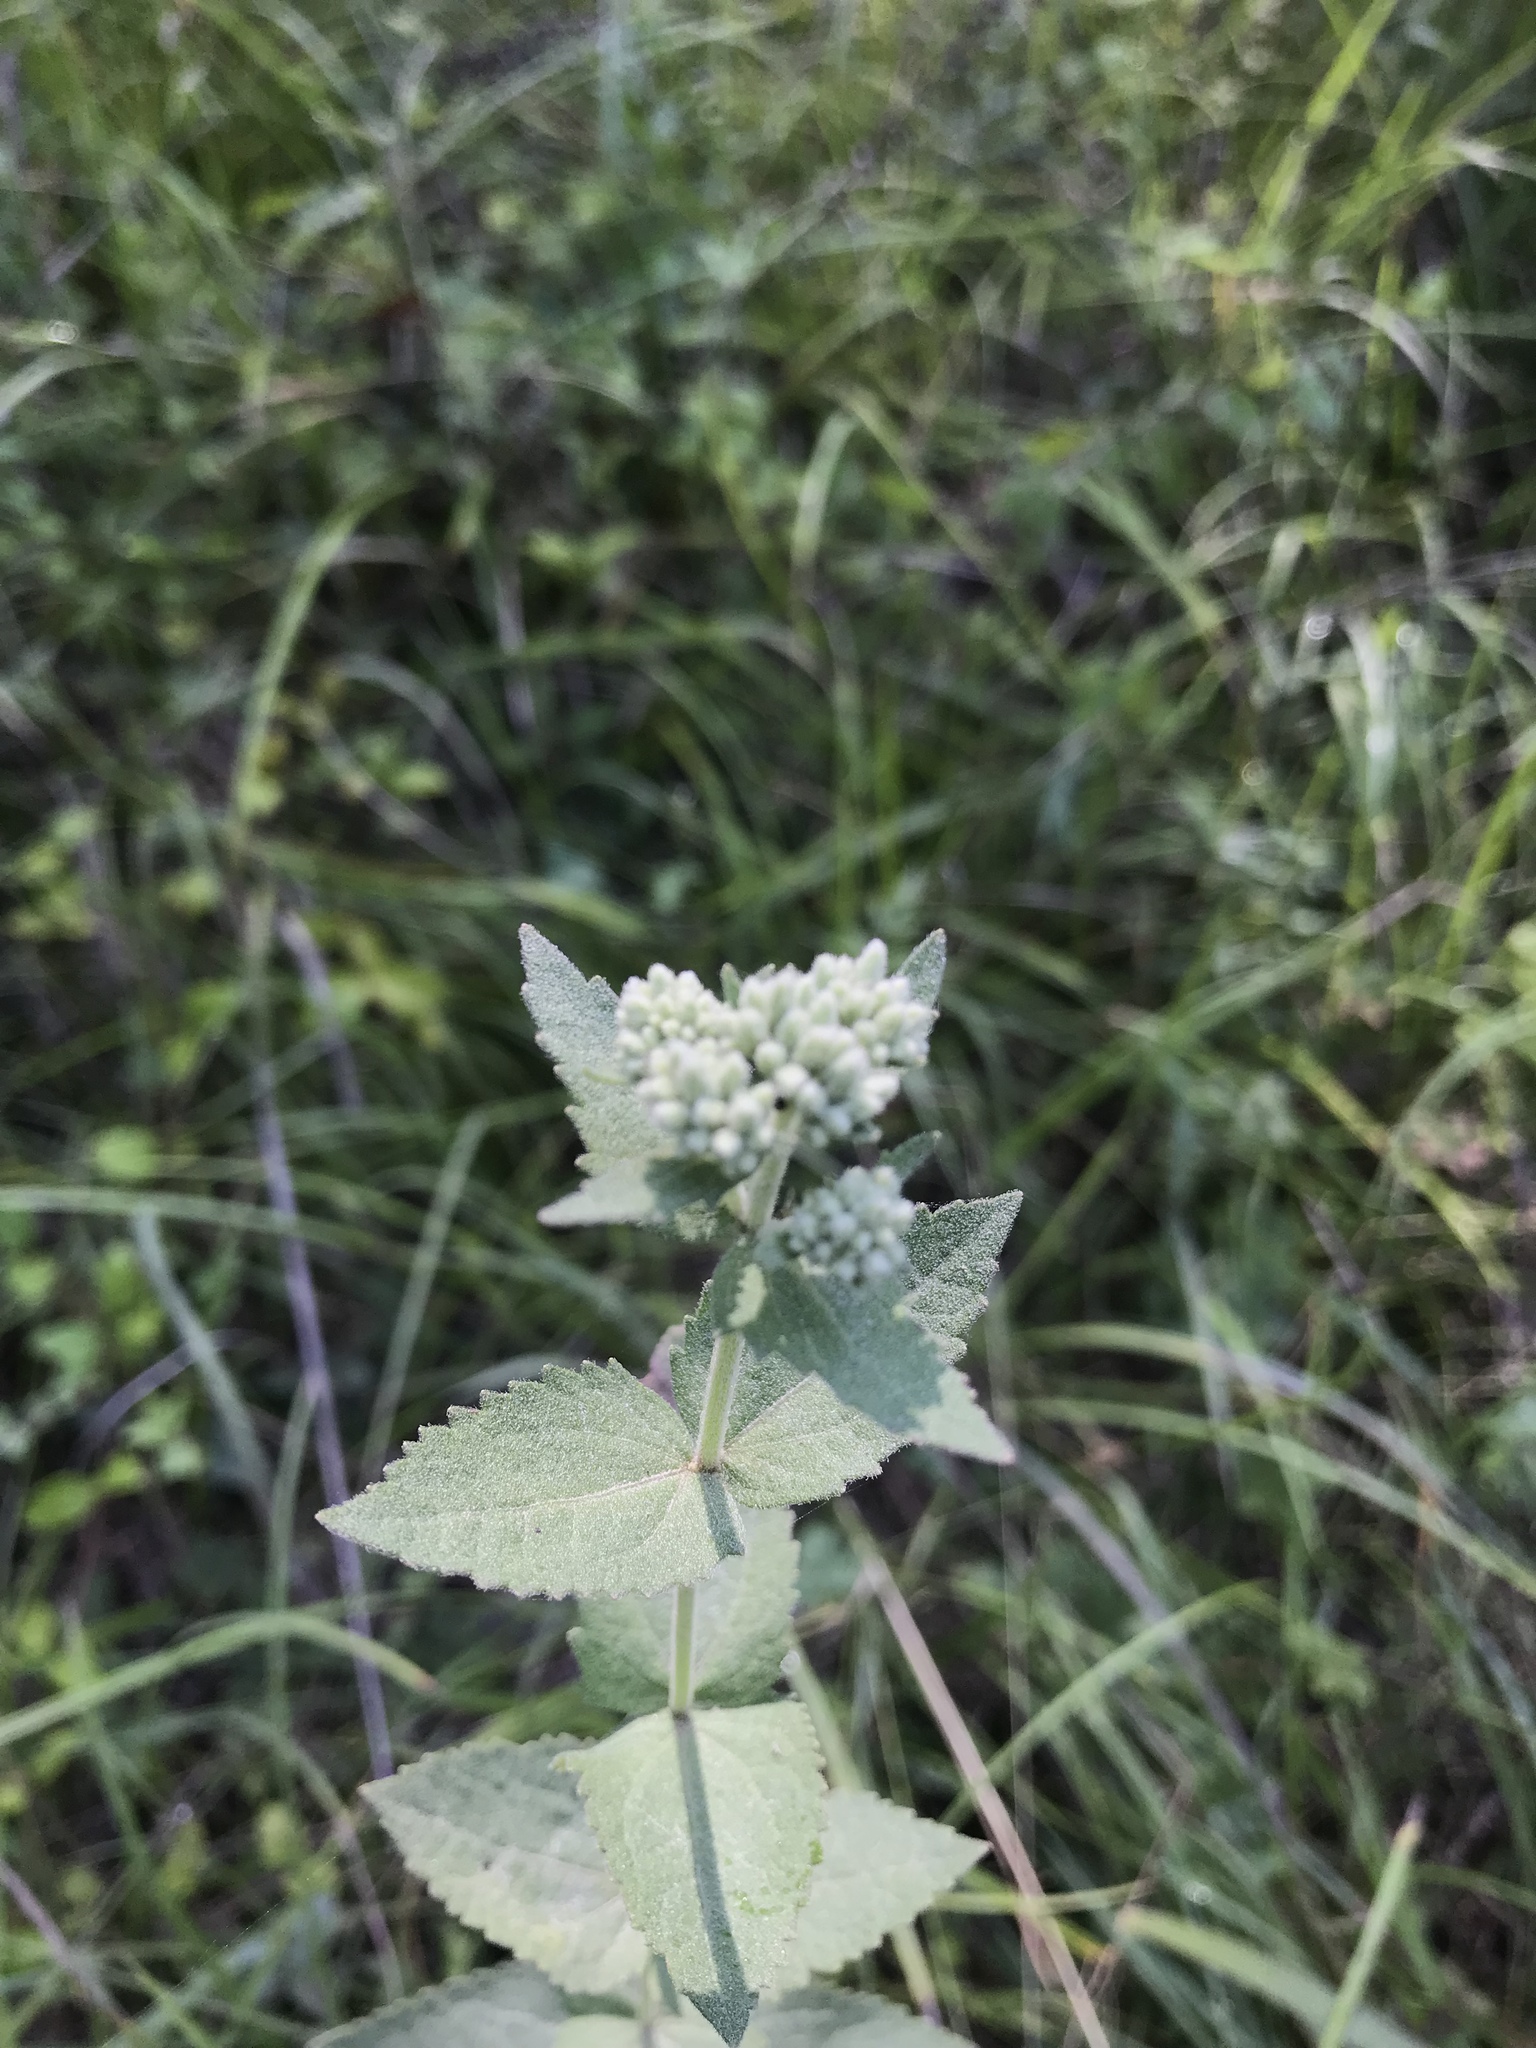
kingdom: Plantae
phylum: Tracheophyta
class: Magnoliopsida
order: Asterales
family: Asteraceae
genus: Eupatorium
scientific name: Eupatorium rotundifolium
